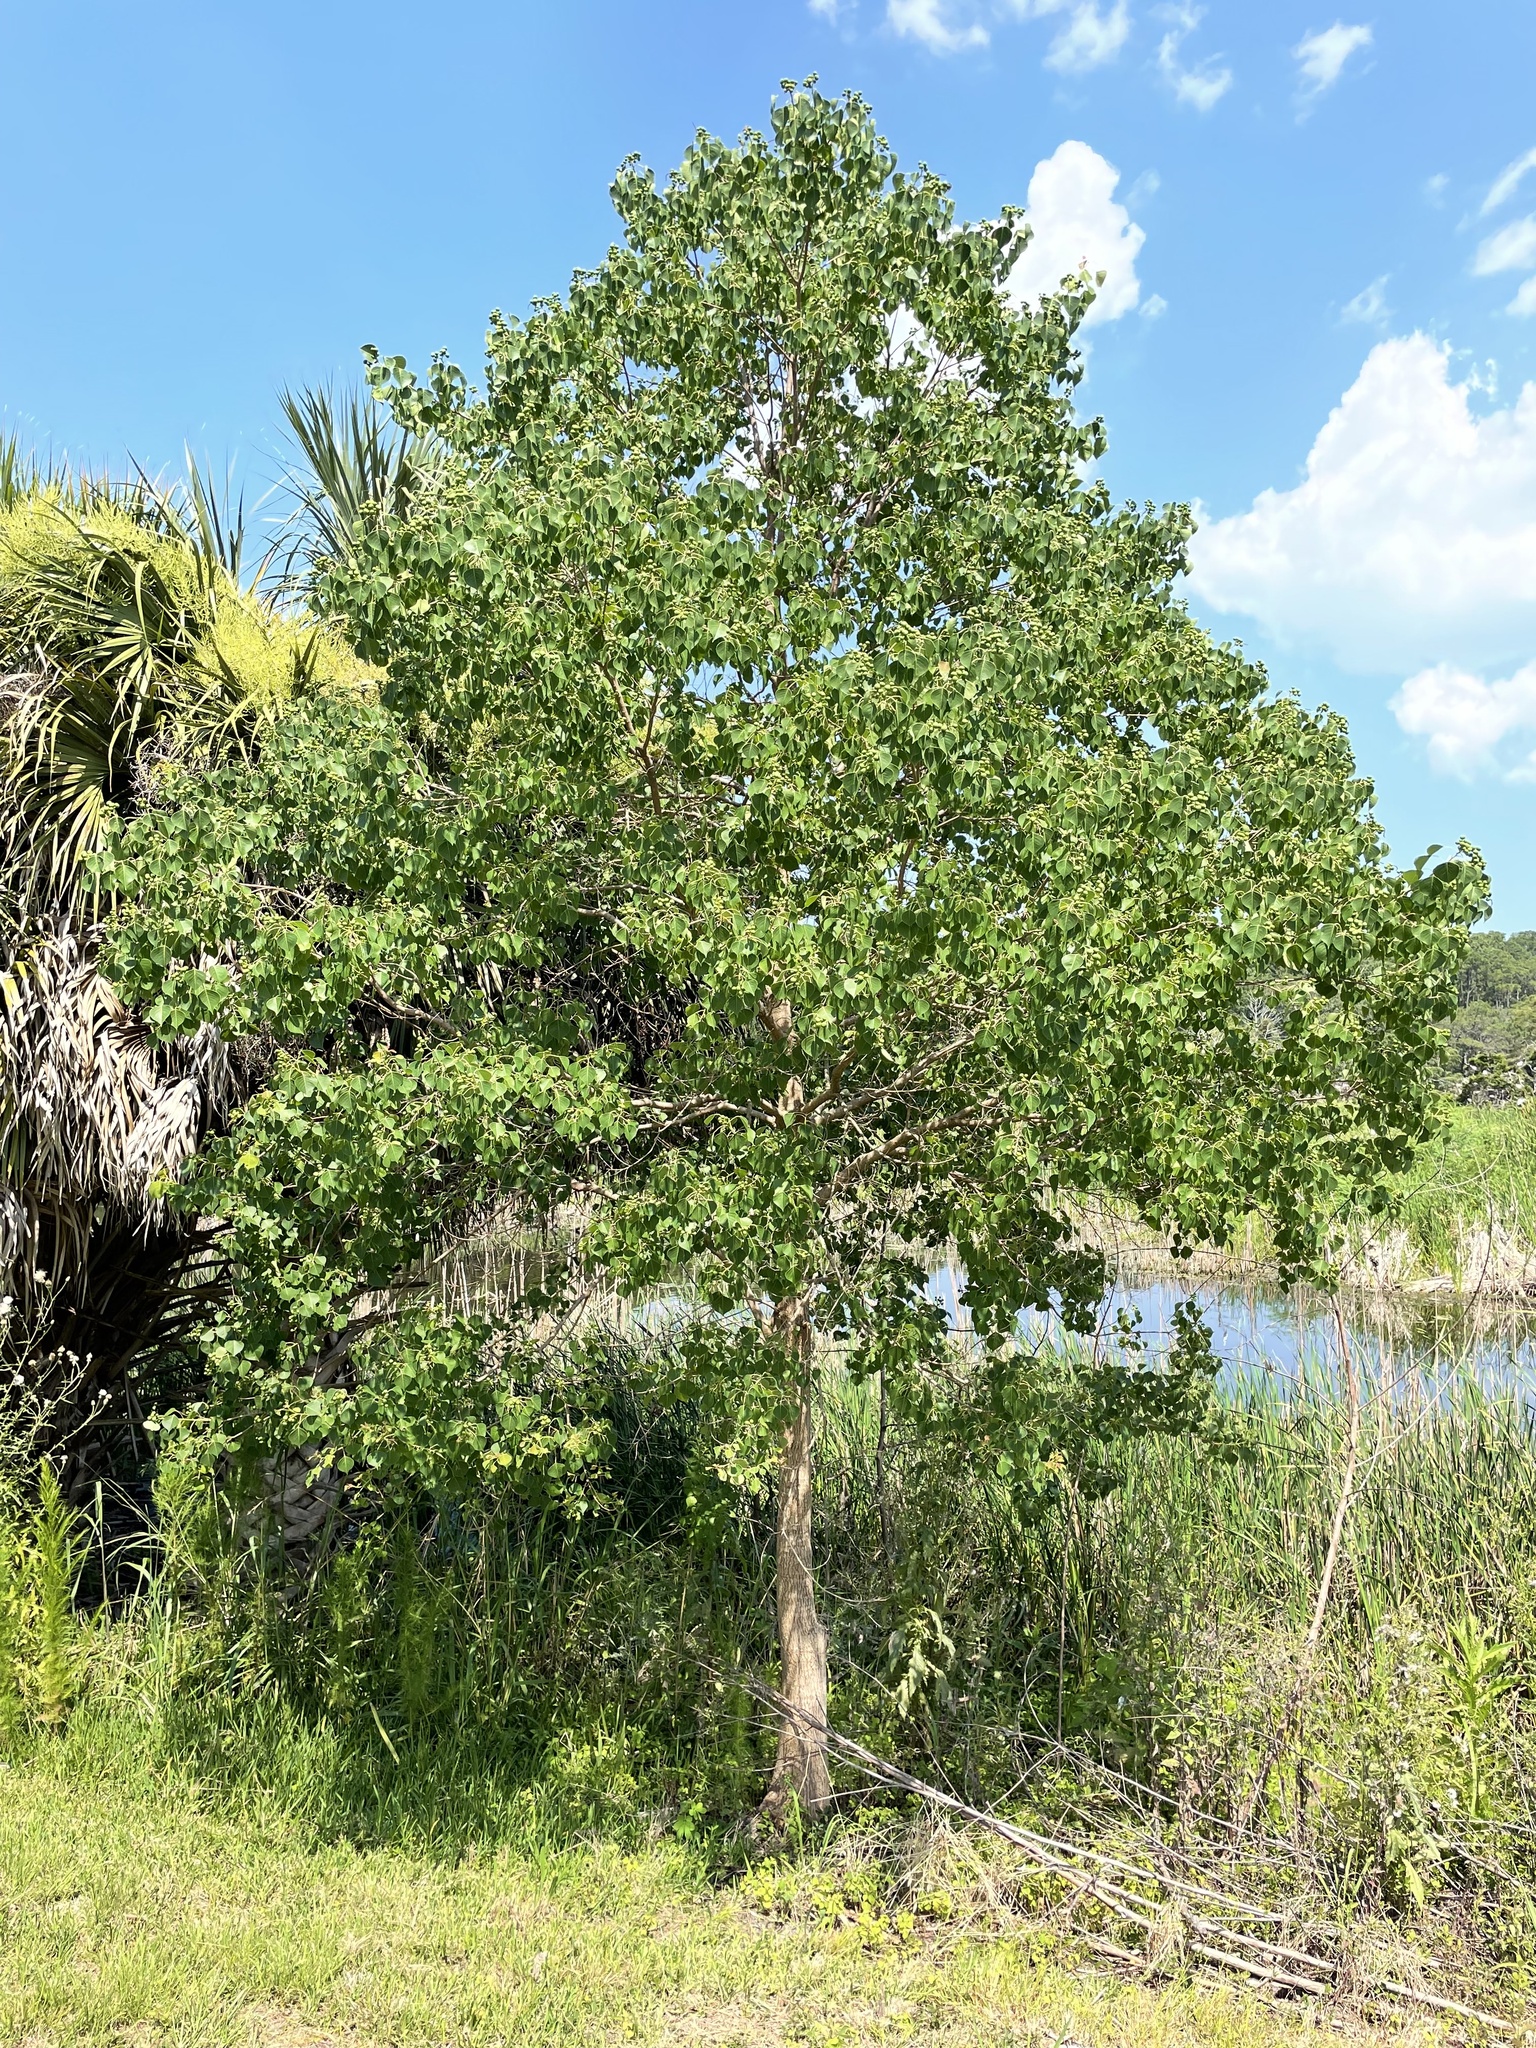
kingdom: Plantae
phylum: Tracheophyta
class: Magnoliopsida
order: Malpighiales
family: Euphorbiaceae
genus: Triadica
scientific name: Triadica sebifera
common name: Chinese tallow
